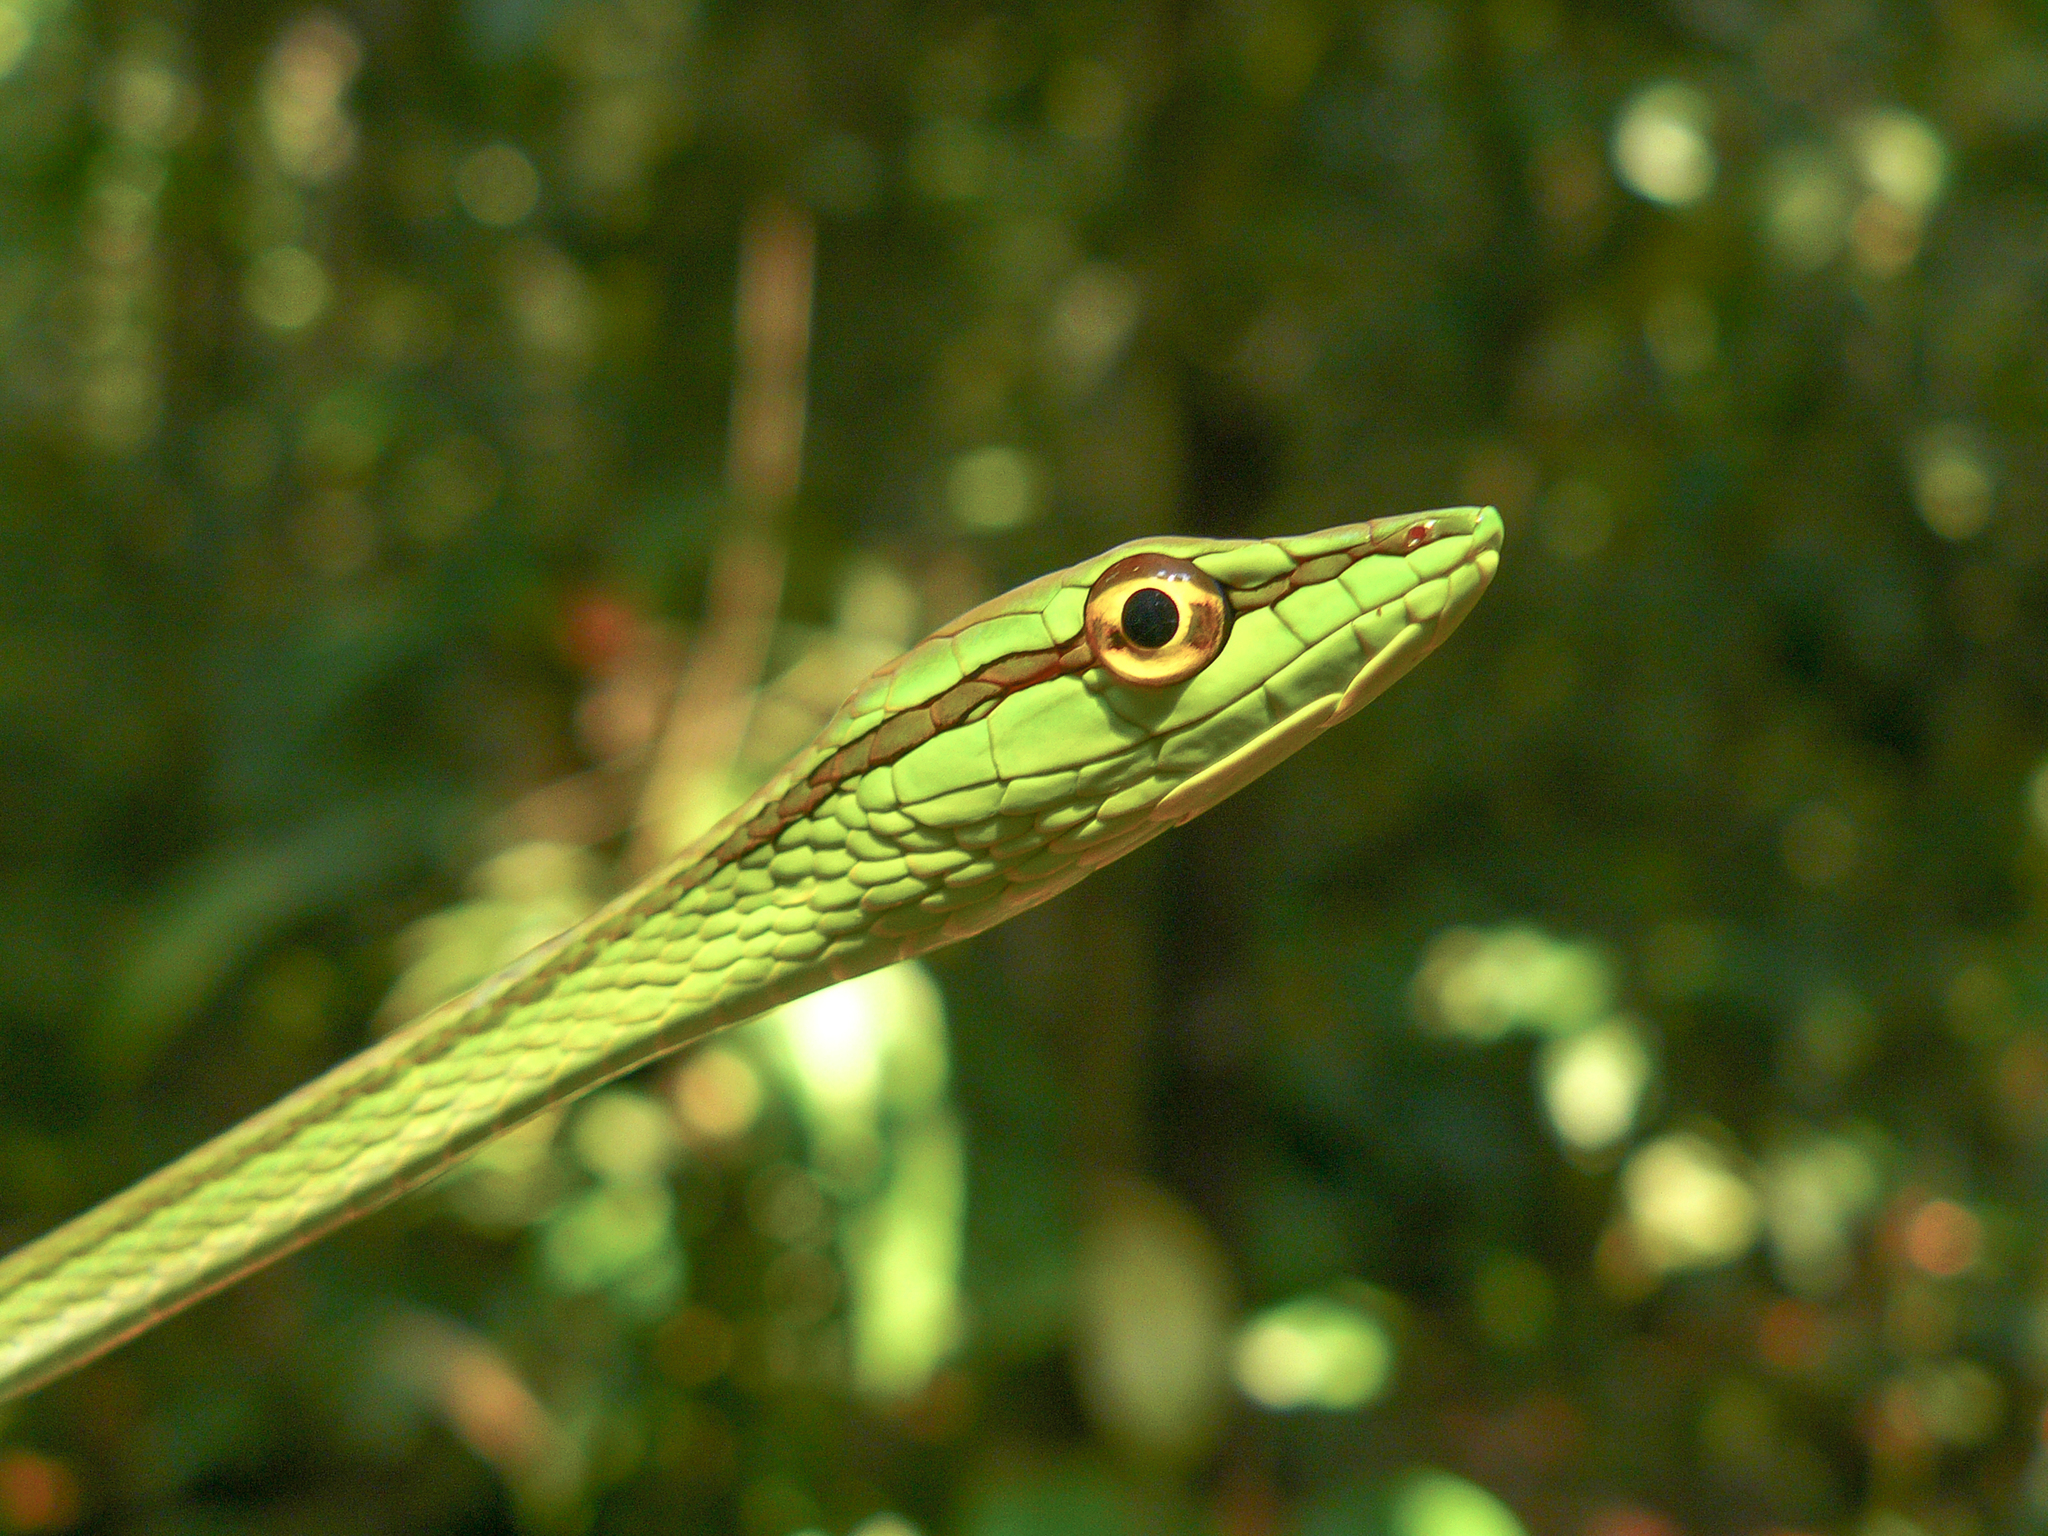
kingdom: Animalia
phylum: Chordata
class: Squamata
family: Colubridae
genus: Xenoxybelis
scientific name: Xenoxybelis boulengeri
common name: Southern sharpnose snake
